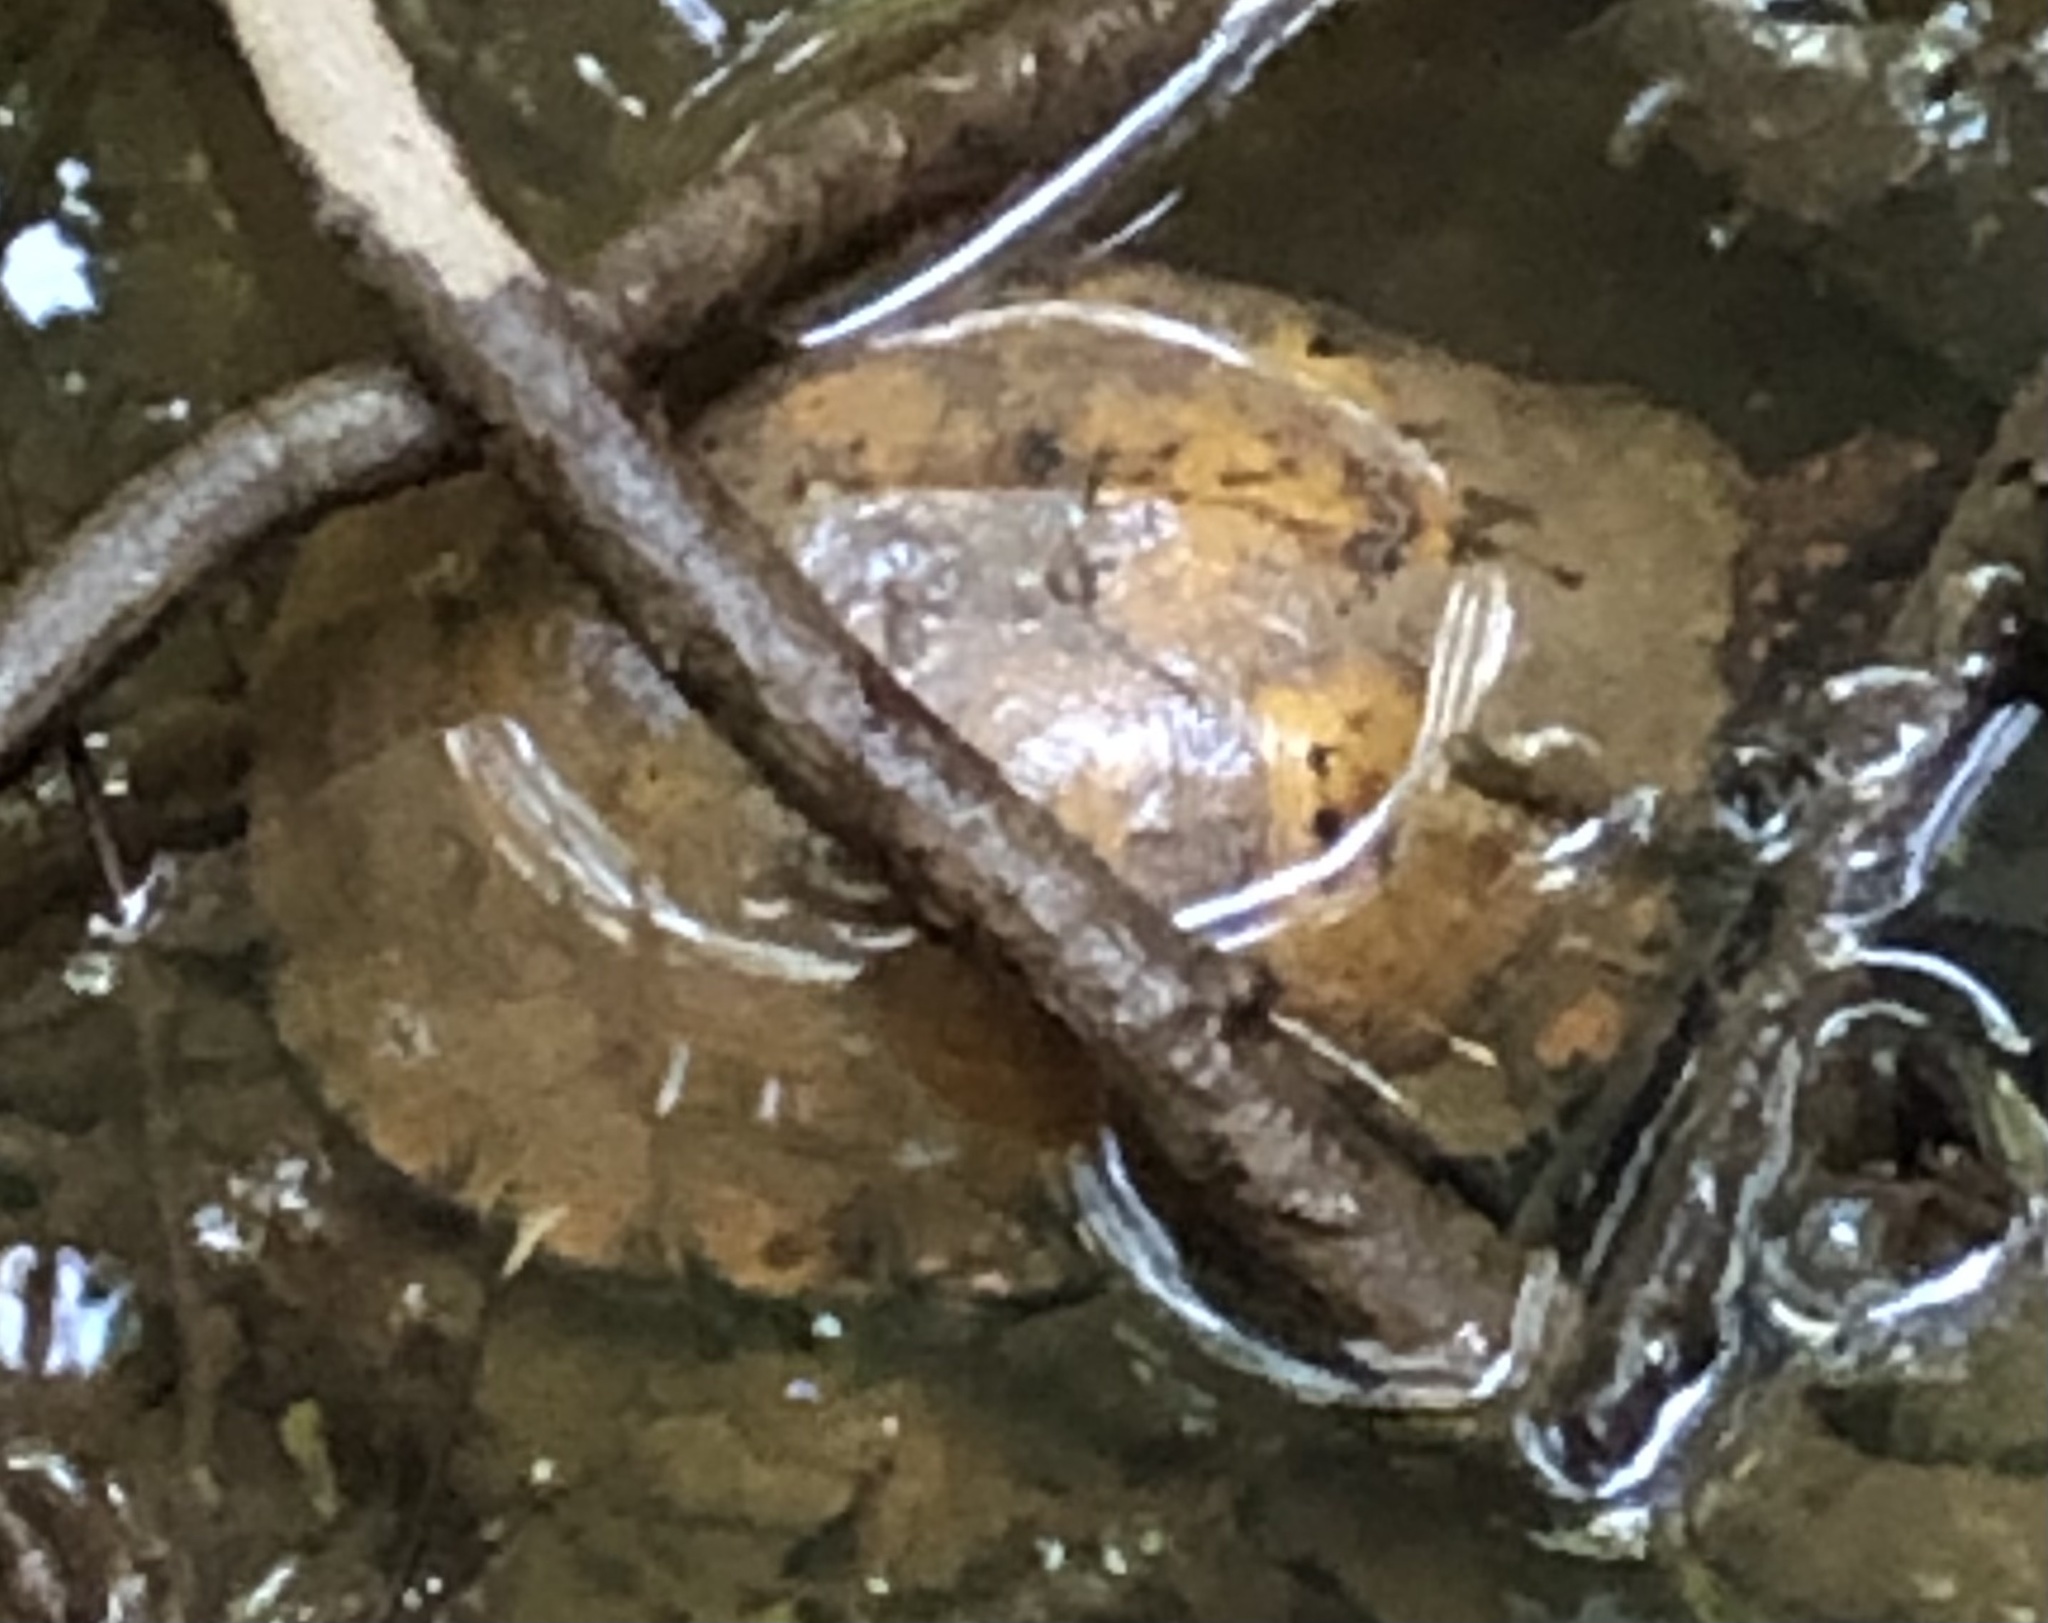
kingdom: Animalia
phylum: Chordata
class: Testudines
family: Emydidae
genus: Terrapene
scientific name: Terrapene carolina
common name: Common box turtle
